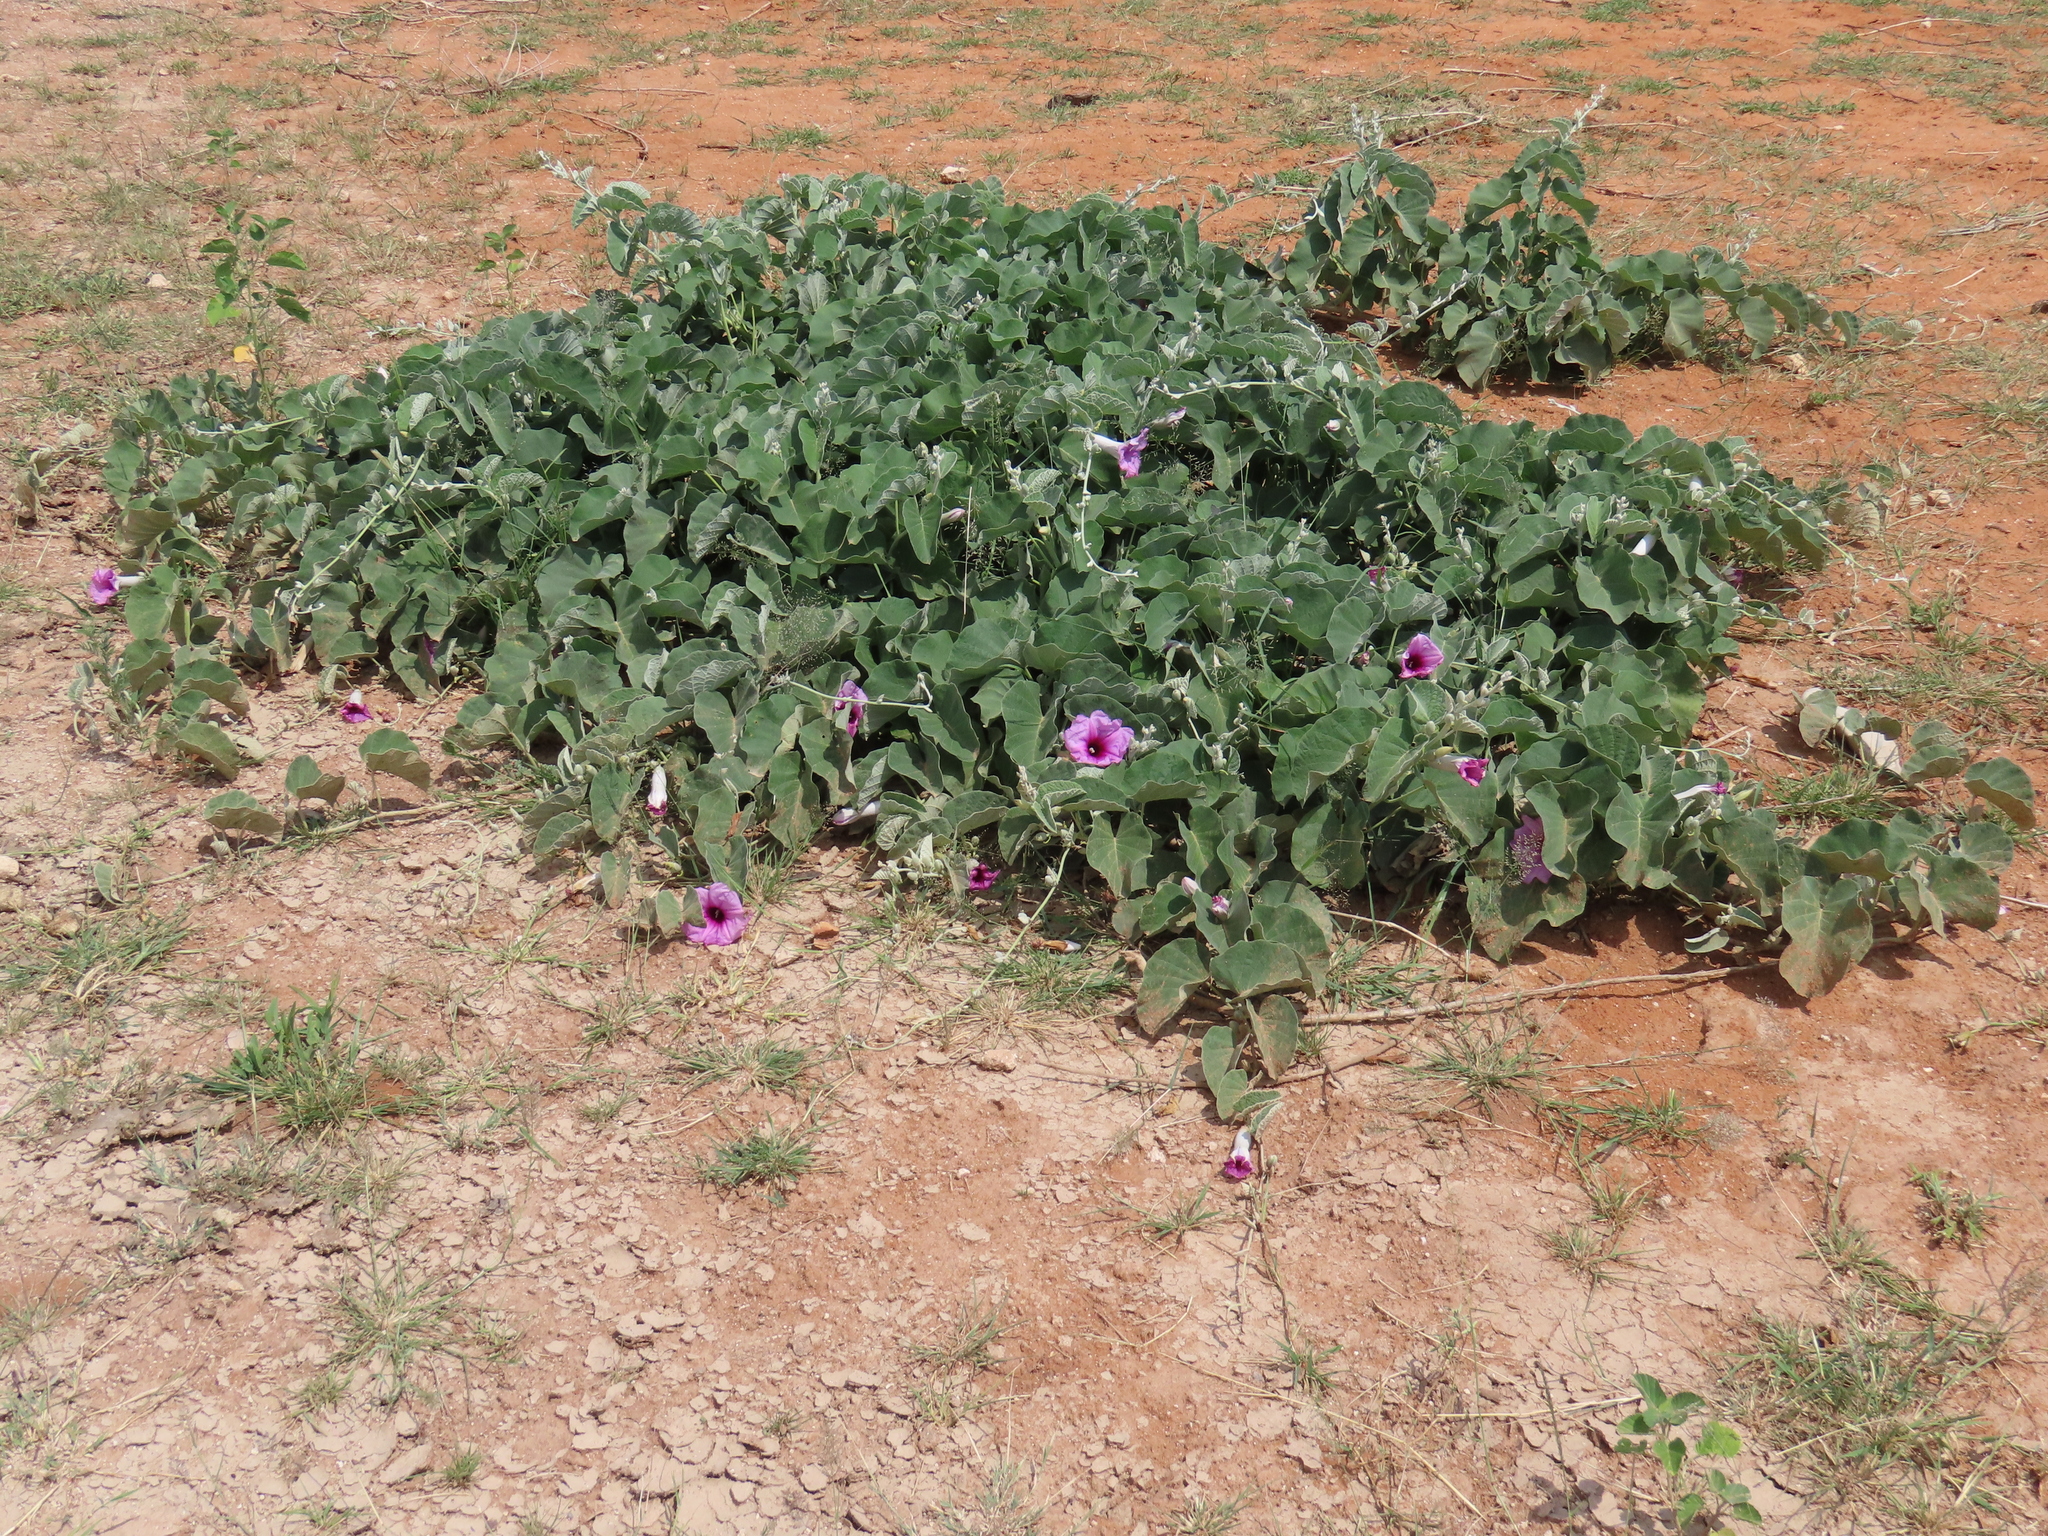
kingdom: Plantae
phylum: Tracheophyta
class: Magnoliopsida
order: Solanales
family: Convolvulaceae
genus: Ipomoea
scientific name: Ipomoea holubii
